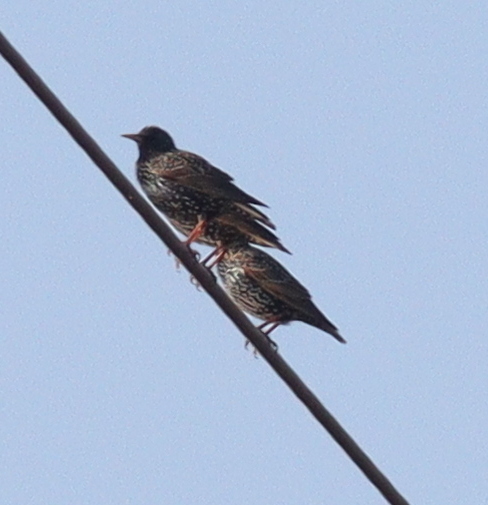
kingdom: Animalia
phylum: Chordata
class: Aves
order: Passeriformes
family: Sturnidae
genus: Sturnus
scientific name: Sturnus vulgaris
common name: Common starling
